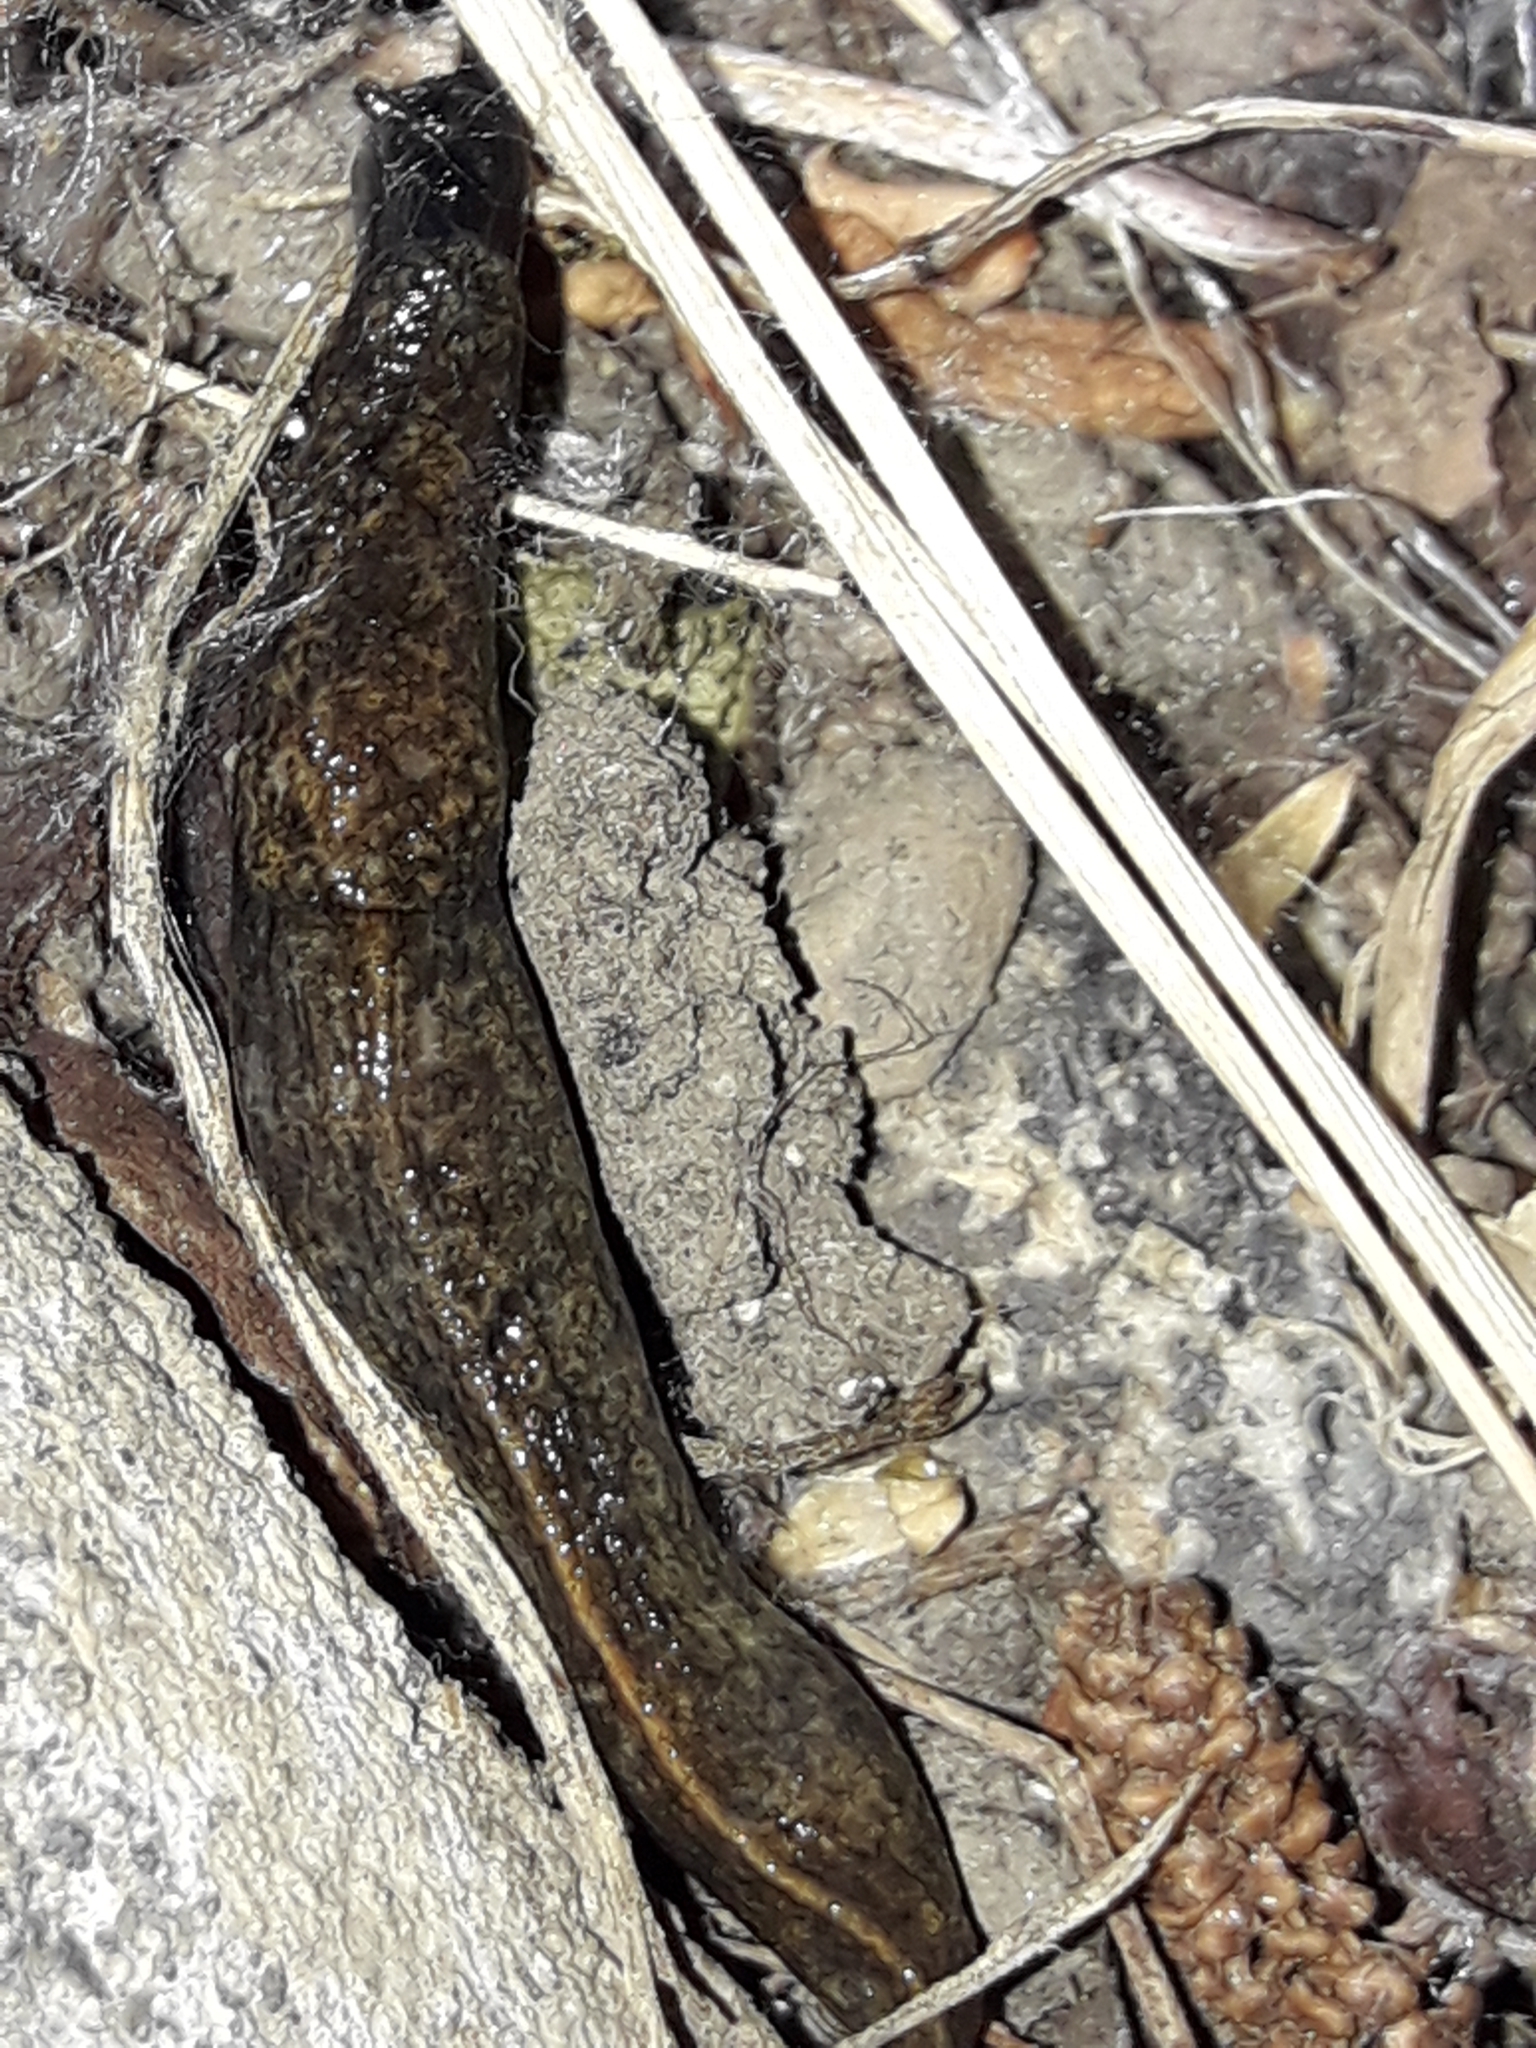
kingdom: Animalia
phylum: Mollusca
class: Gastropoda
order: Stylommatophora
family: Milacidae
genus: Milax
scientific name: Milax gagates
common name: Greenhouse slug
